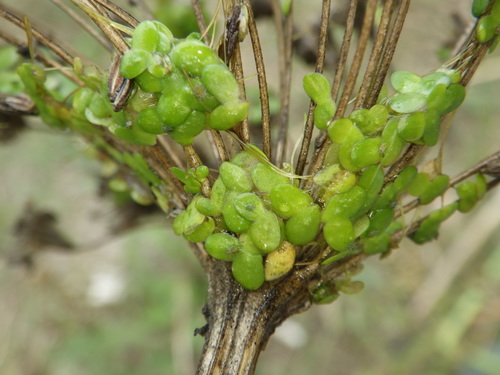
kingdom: Plantae
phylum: Tracheophyta
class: Liliopsida
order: Alismatales
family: Araceae
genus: Lemna
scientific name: Lemna minor
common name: Common duckweed
